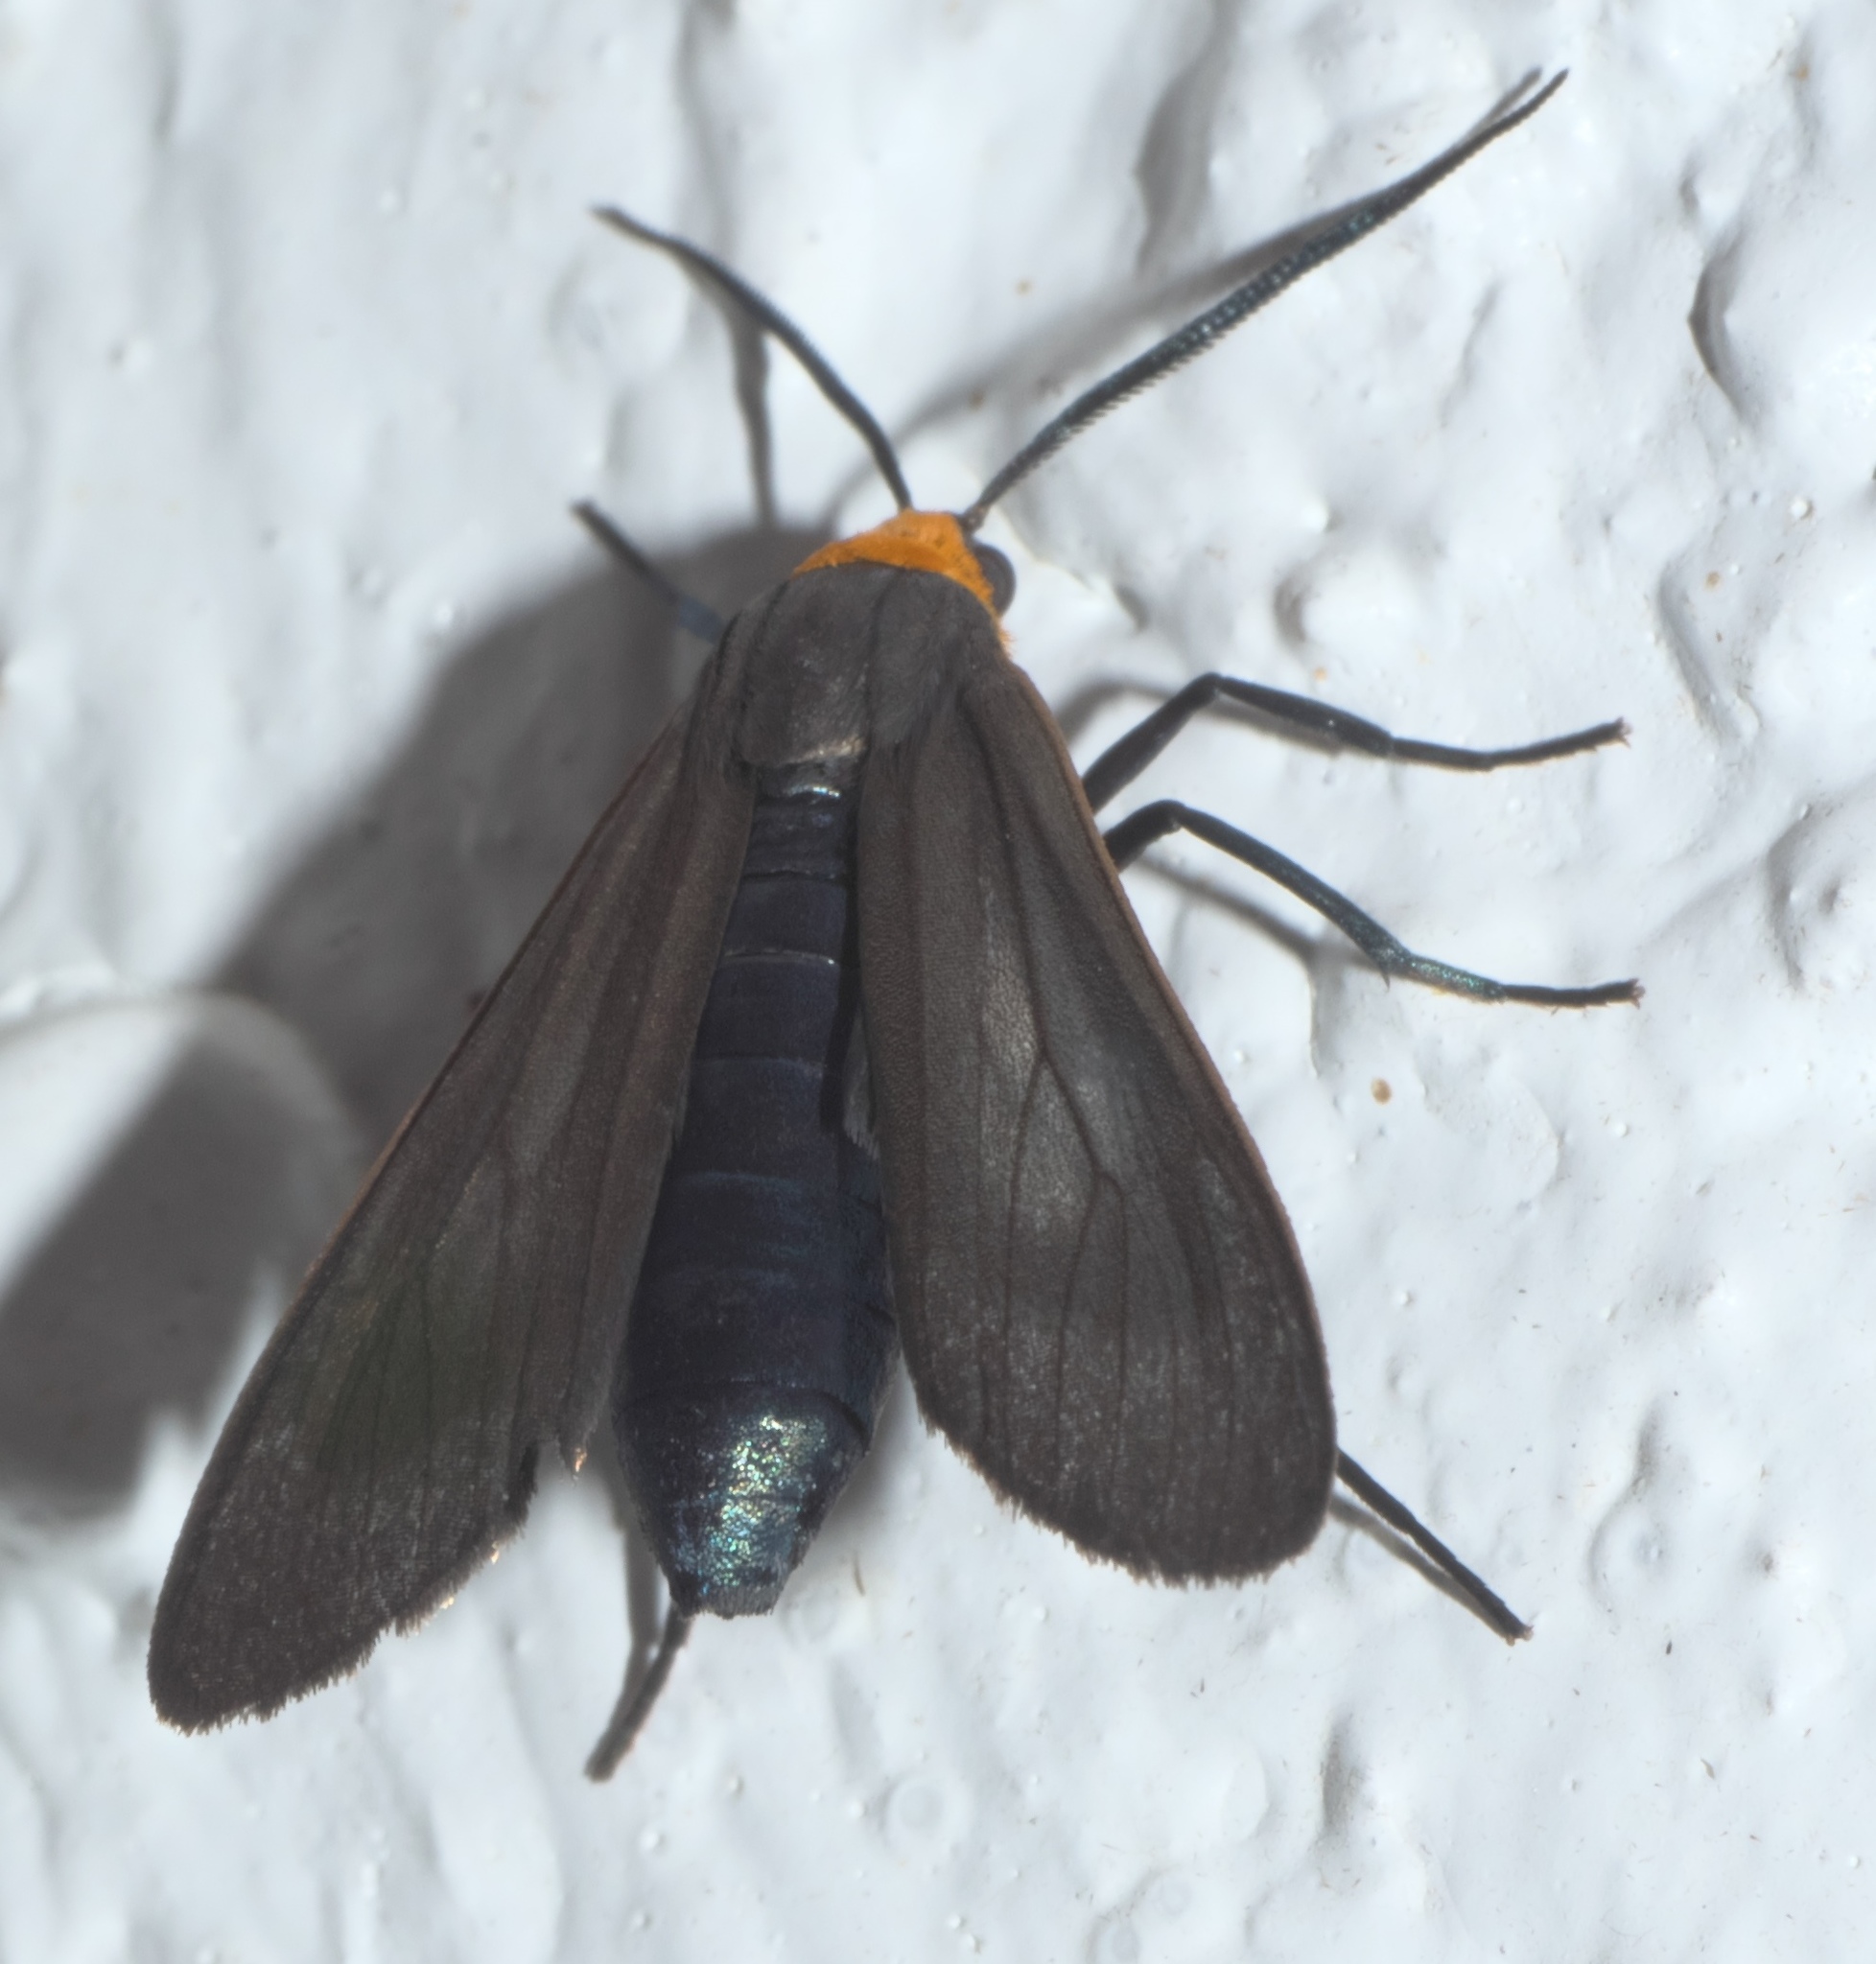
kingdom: Animalia
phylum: Arthropoda
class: Insecta
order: Lepidoptera
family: Erebidae
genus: Cisseps
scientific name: Cisseps fulvicollis
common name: Yellow-collared scape moth
